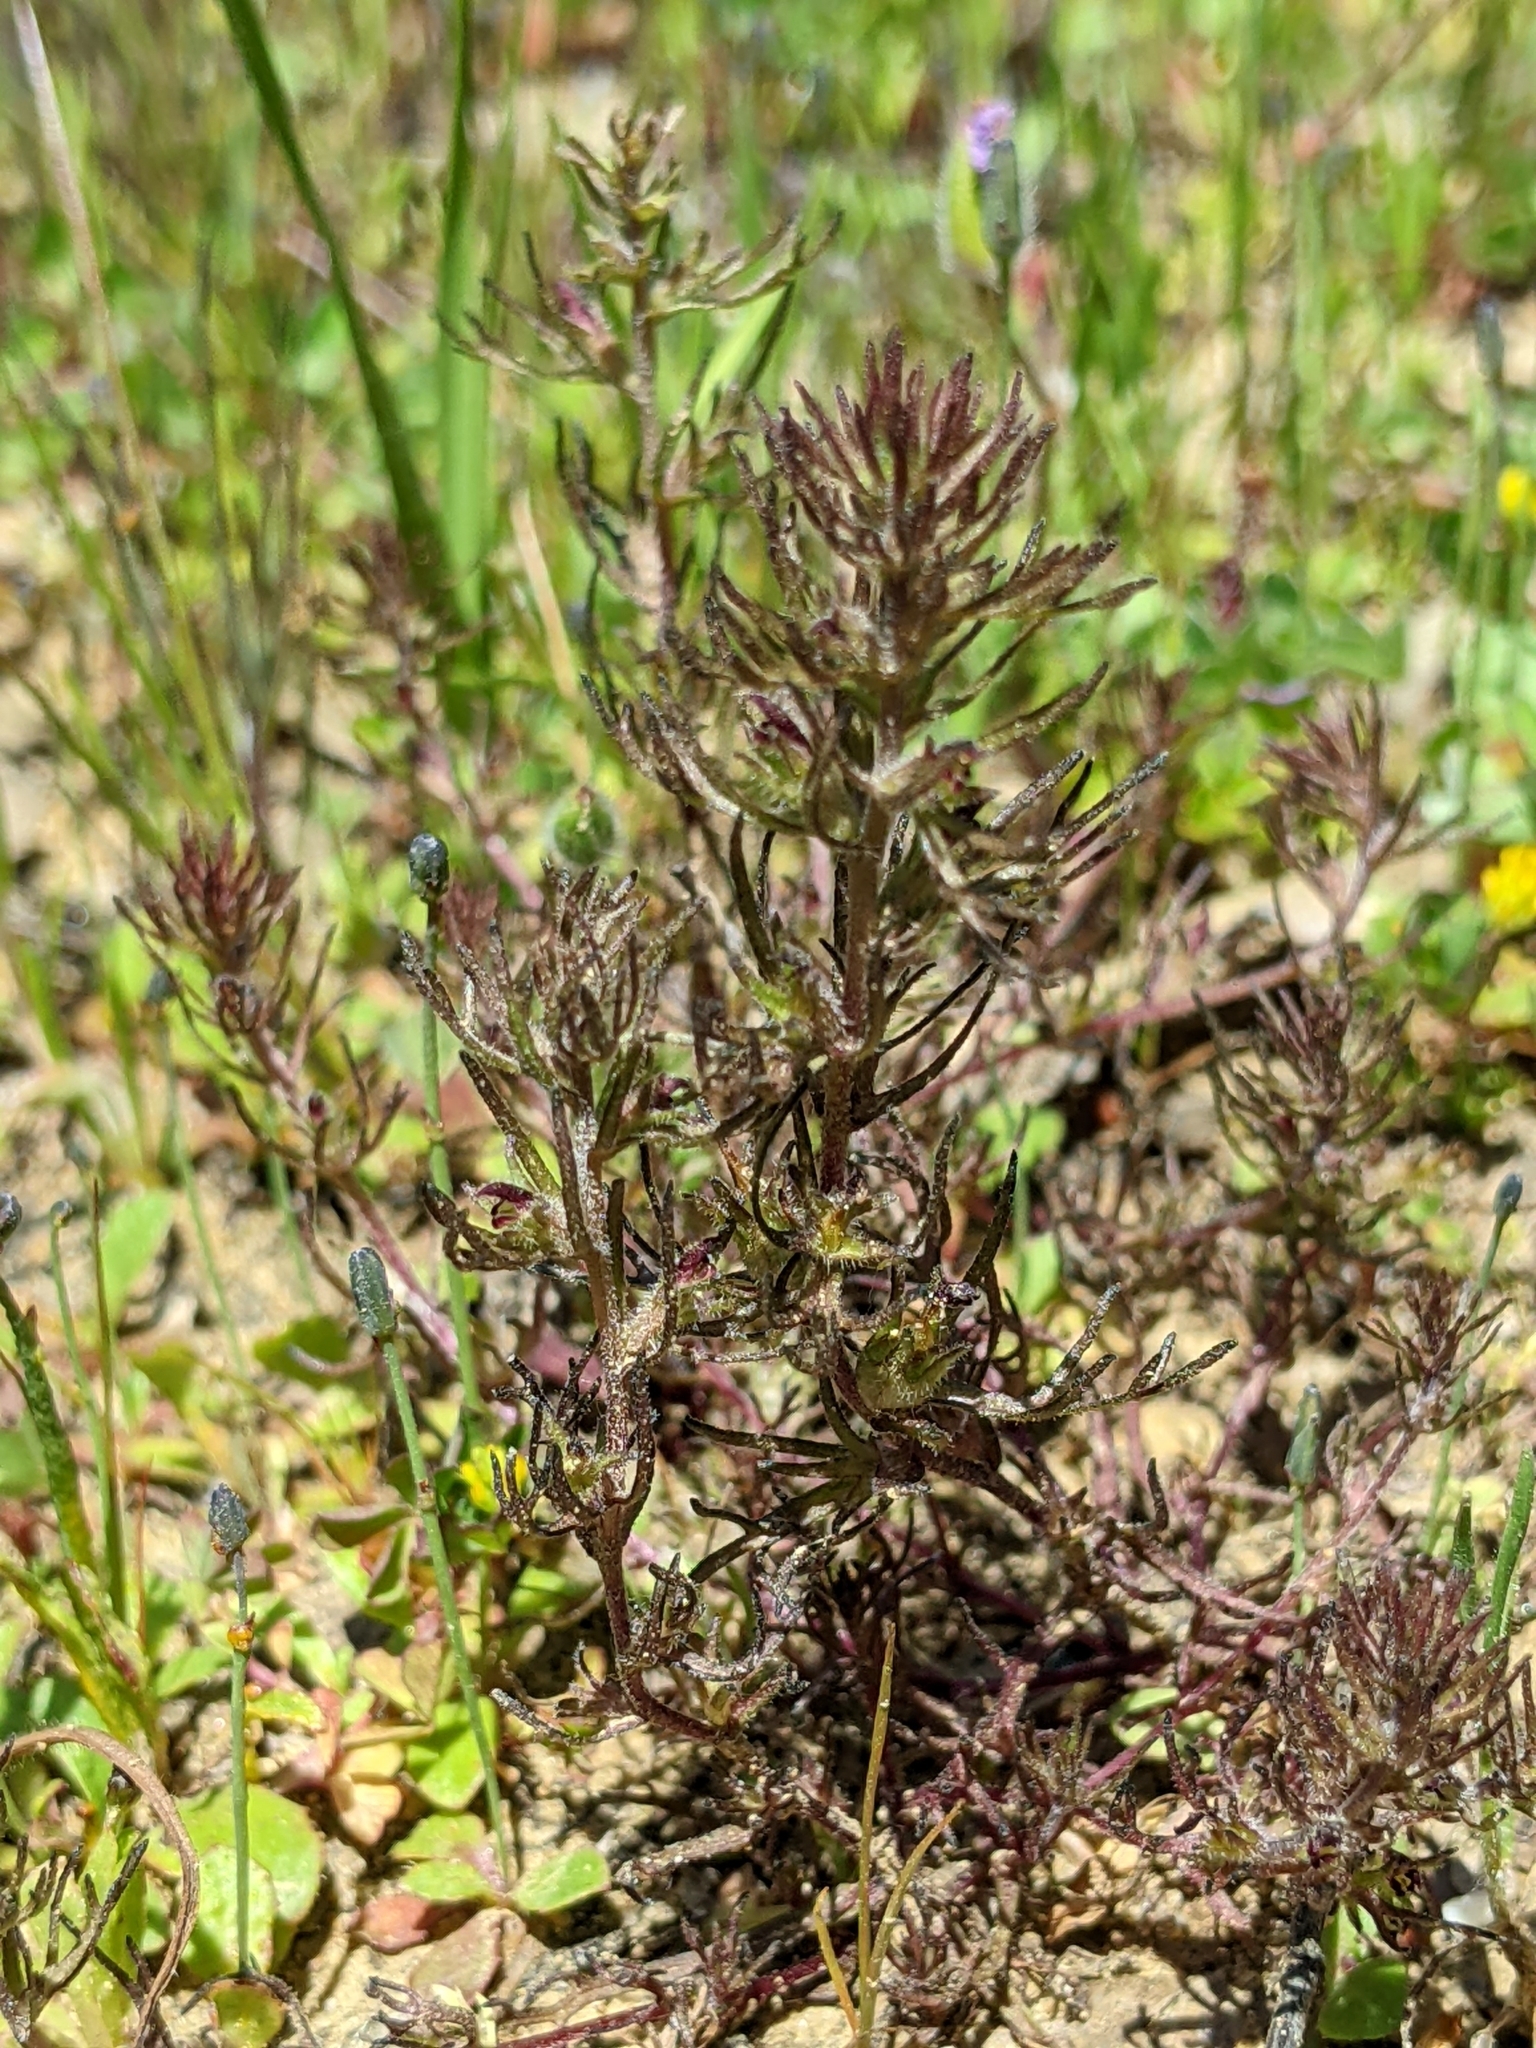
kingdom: Plantae
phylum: Tracheophyta
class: Magnoliopsida
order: Lamiales
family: Orobanchaceae
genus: Triphysaria
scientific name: Triphysaria pusilla
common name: Dwarf false owl-clover
